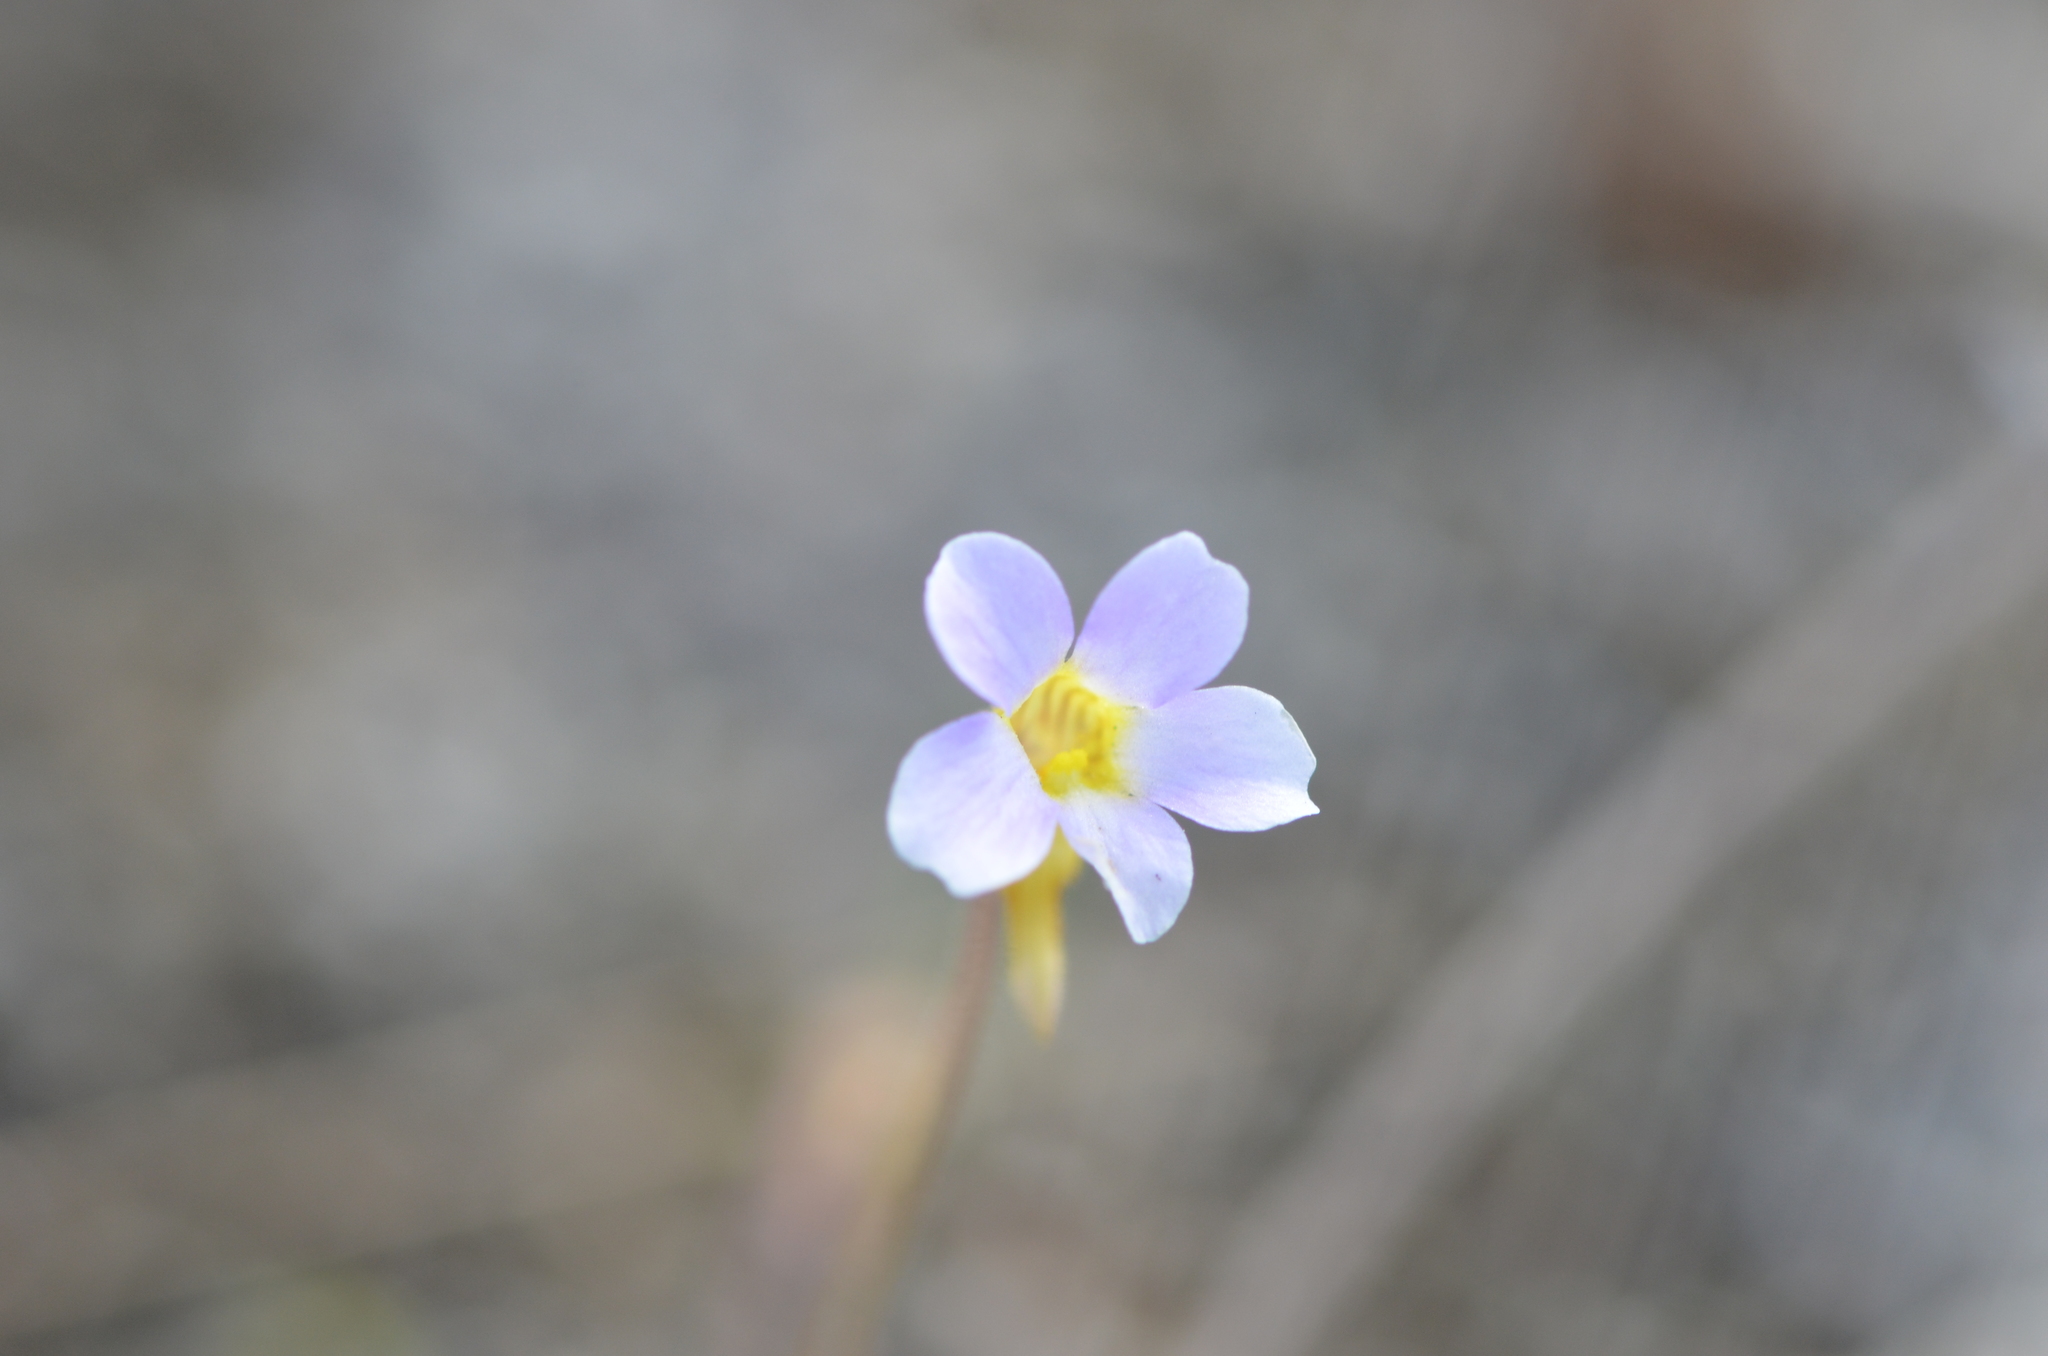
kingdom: Plantae
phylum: Tracheophyta
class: Magnoliopsida
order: Lamiales
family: Lentibulariaceae
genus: Pinguicula
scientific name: Pinguicula pumila
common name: Small butterwort
